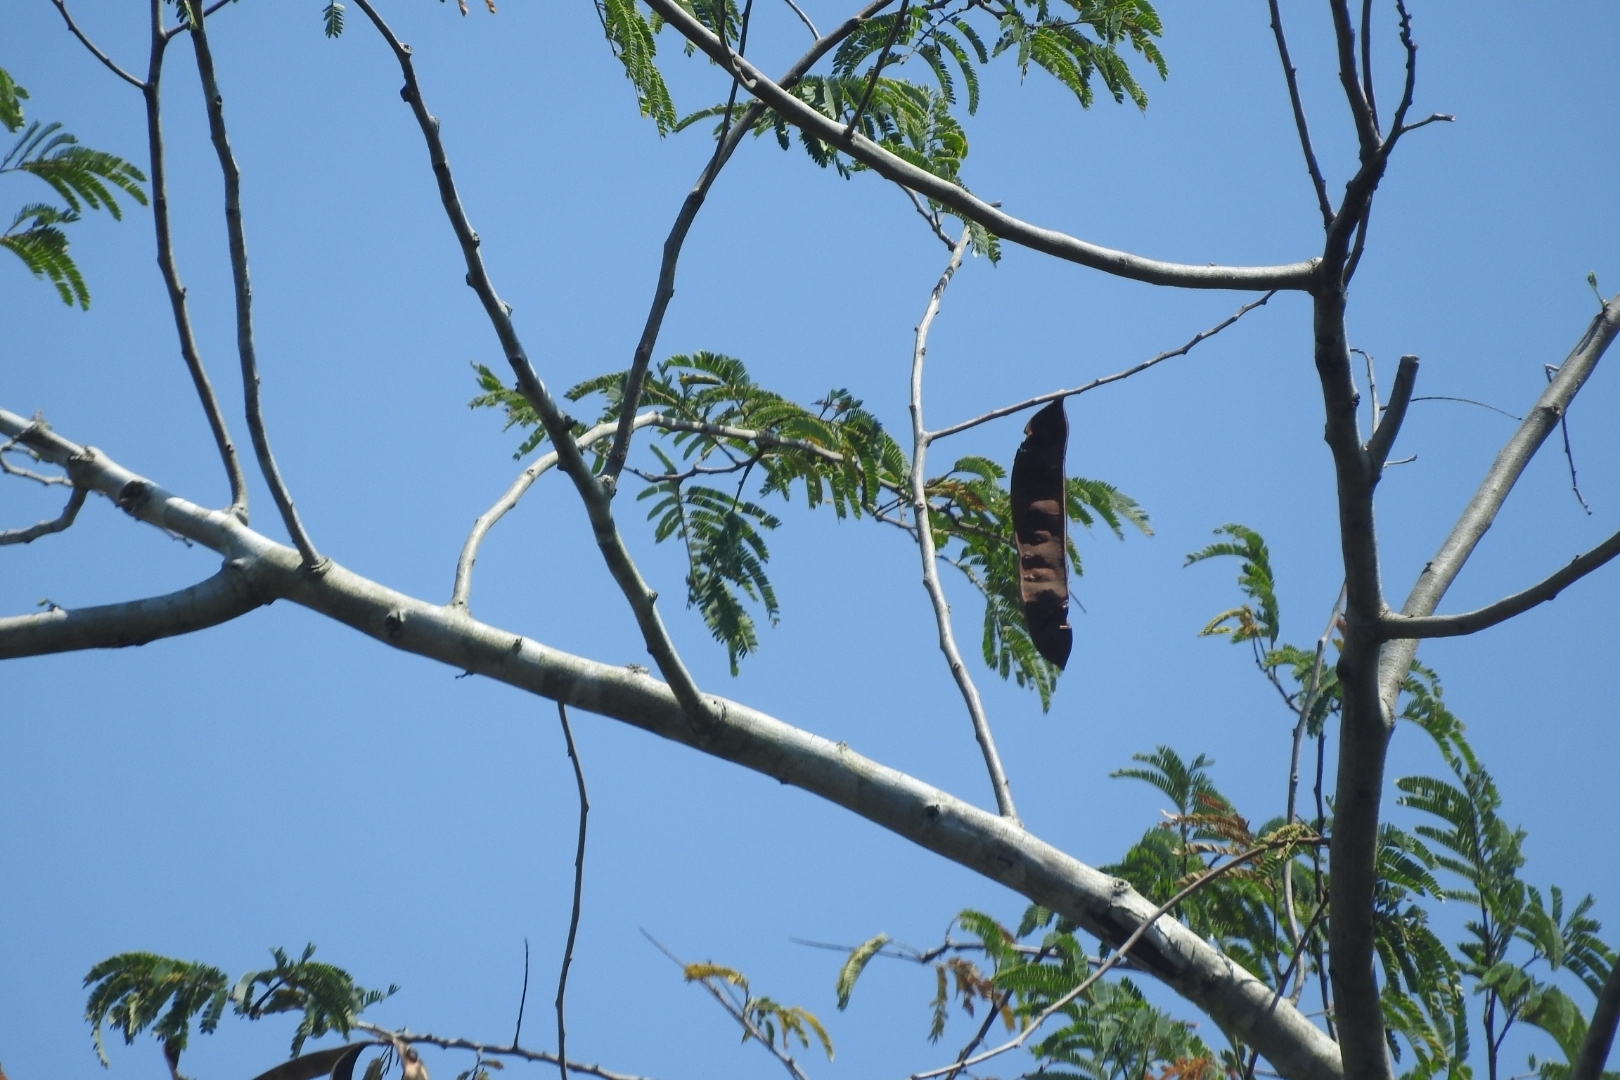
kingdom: Plantae
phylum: Tracheophyta
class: Magnoliopsida
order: Fabales
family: Fabaceae
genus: Lysiloma
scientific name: Lysiloma latisiliquum
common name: Wild tamarind
